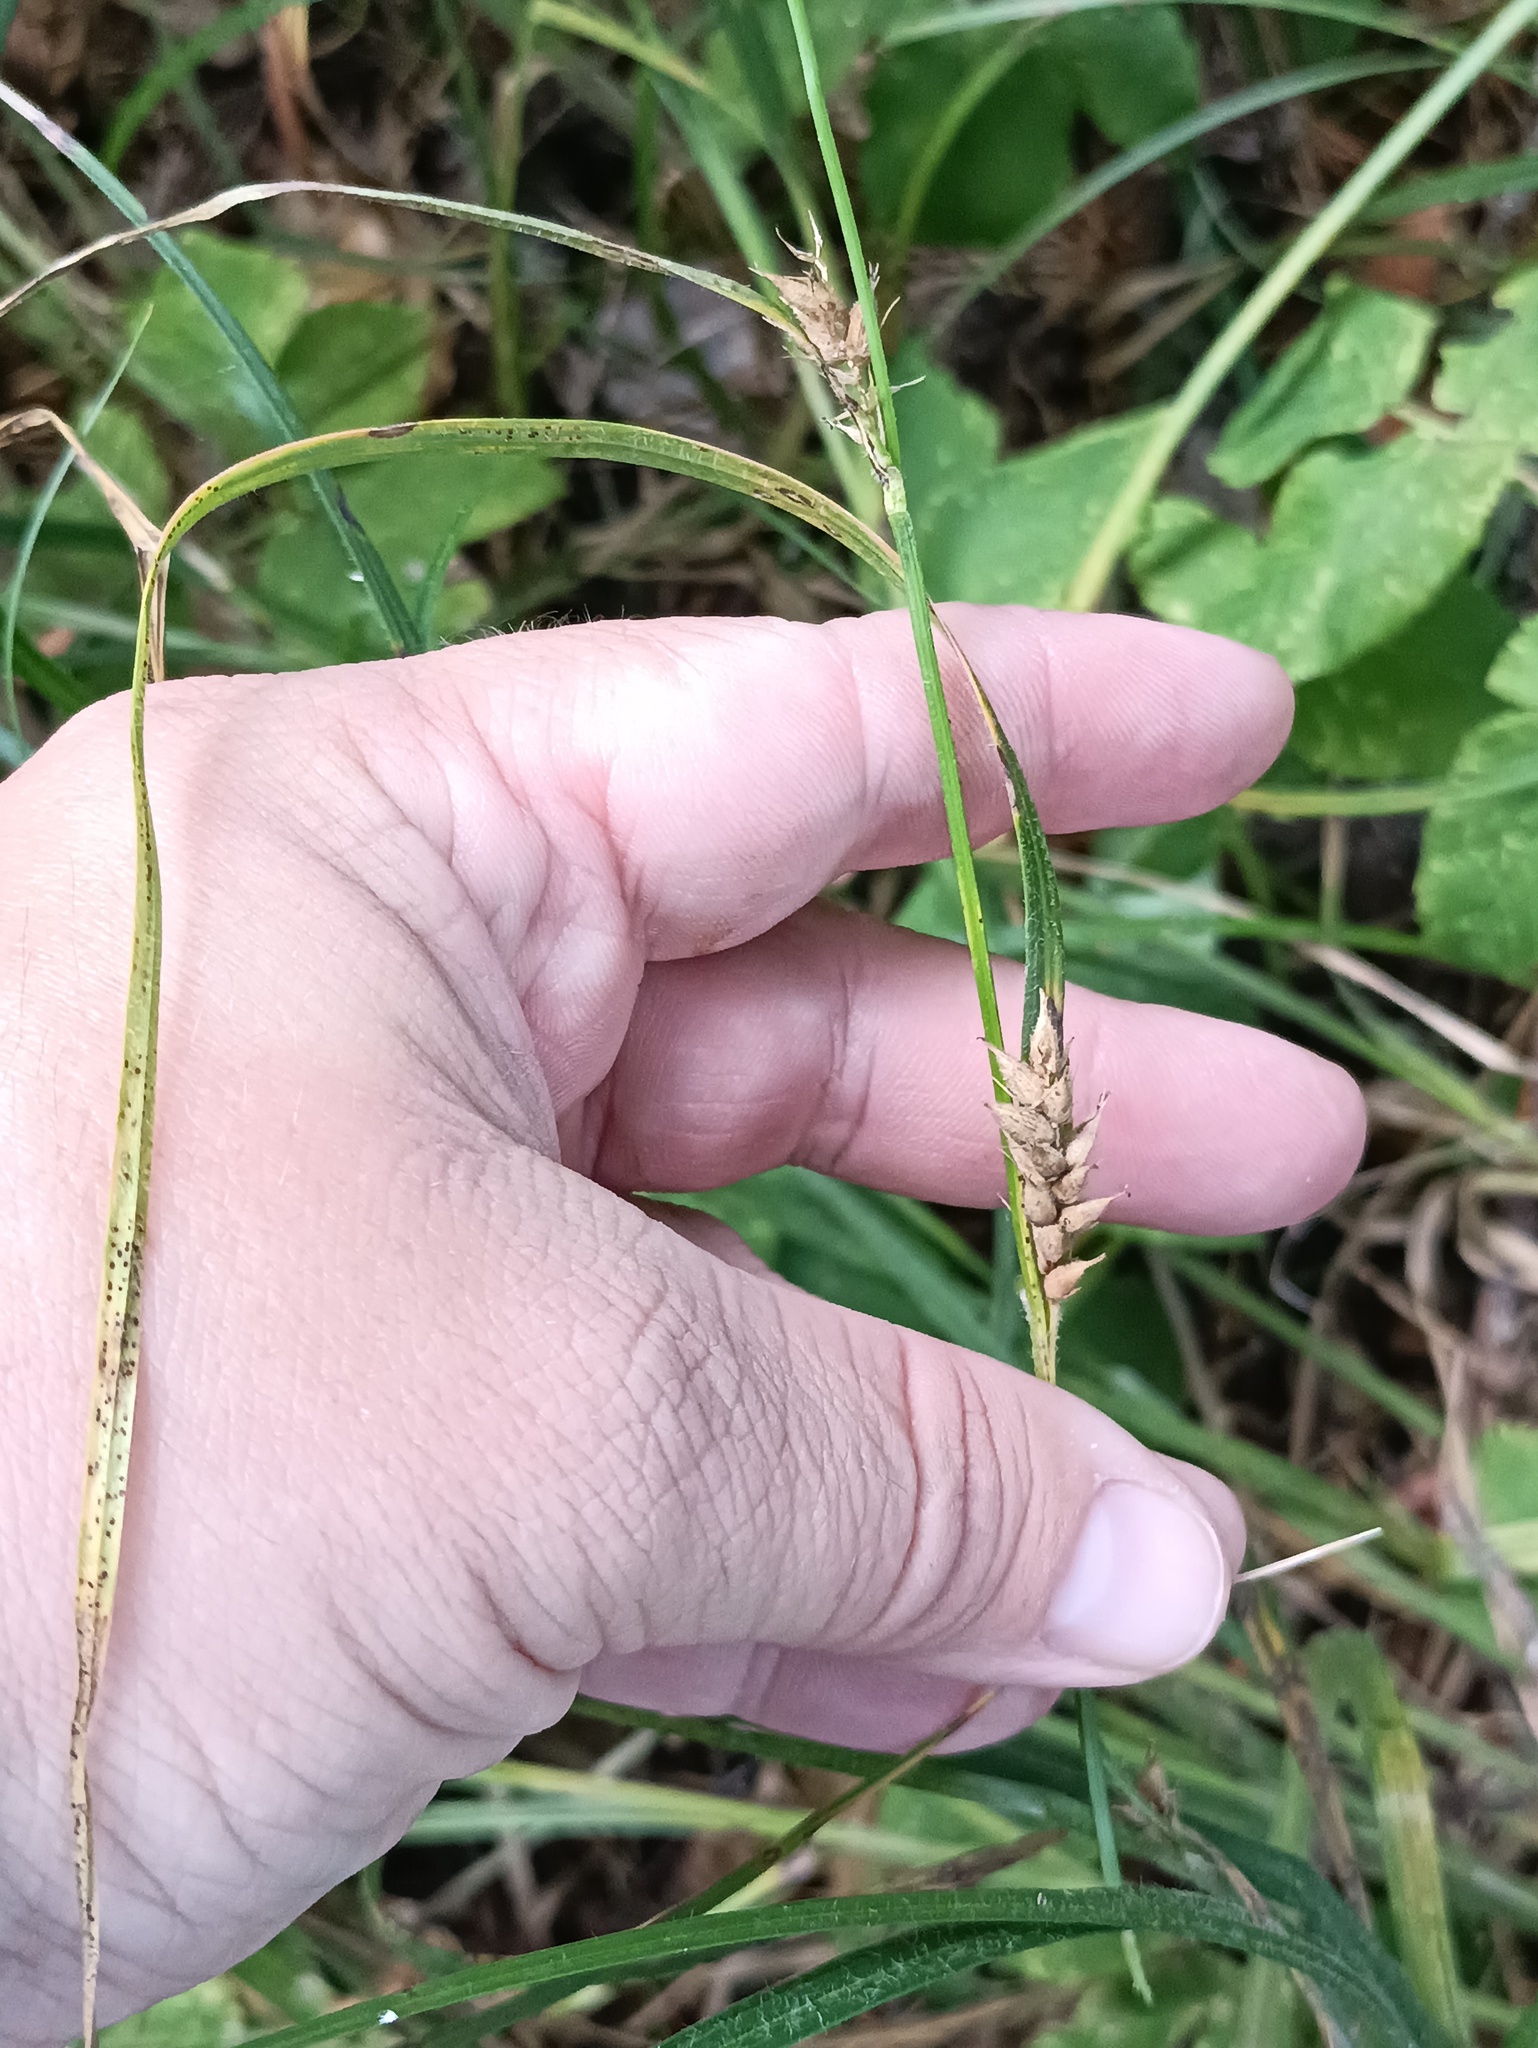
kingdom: Plantae
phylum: Tracheophyta
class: Liliopsida
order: Poales
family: Cyperaceae
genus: Carex
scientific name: Carex hirta
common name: Hairy sedge
